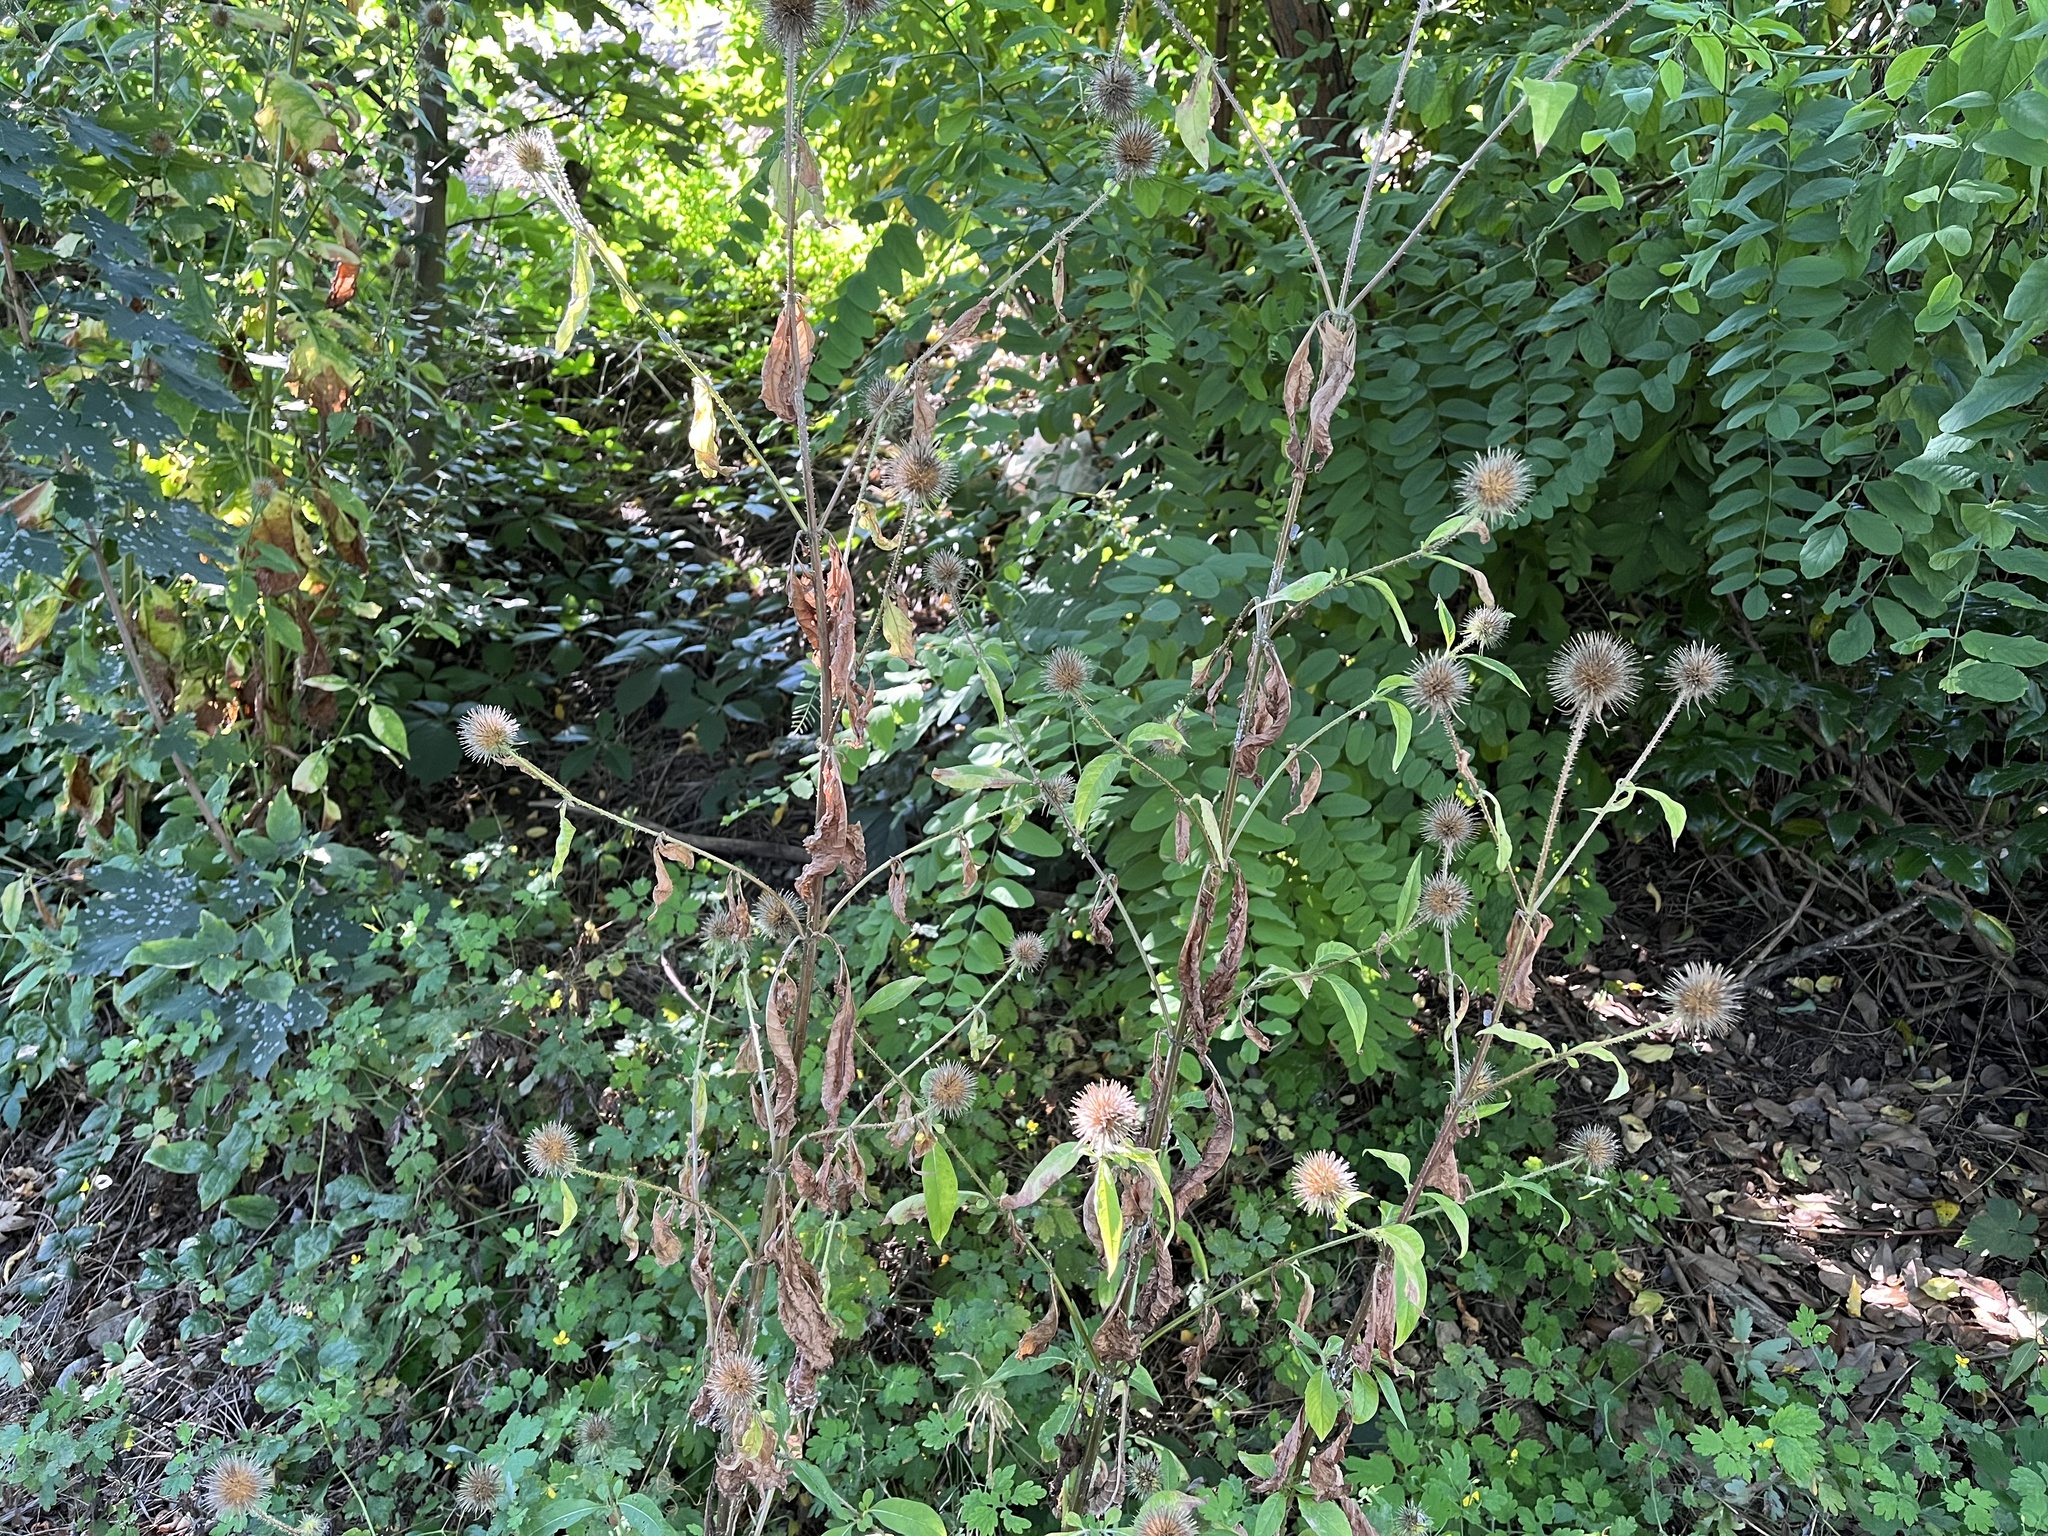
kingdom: Plantae
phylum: Tracheophyta
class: Magnoliopsida
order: Dipsacales
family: Caprifoliaceae
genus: Dipsacus
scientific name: Dipsacus strigosus
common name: Yellow-flowered teasel
